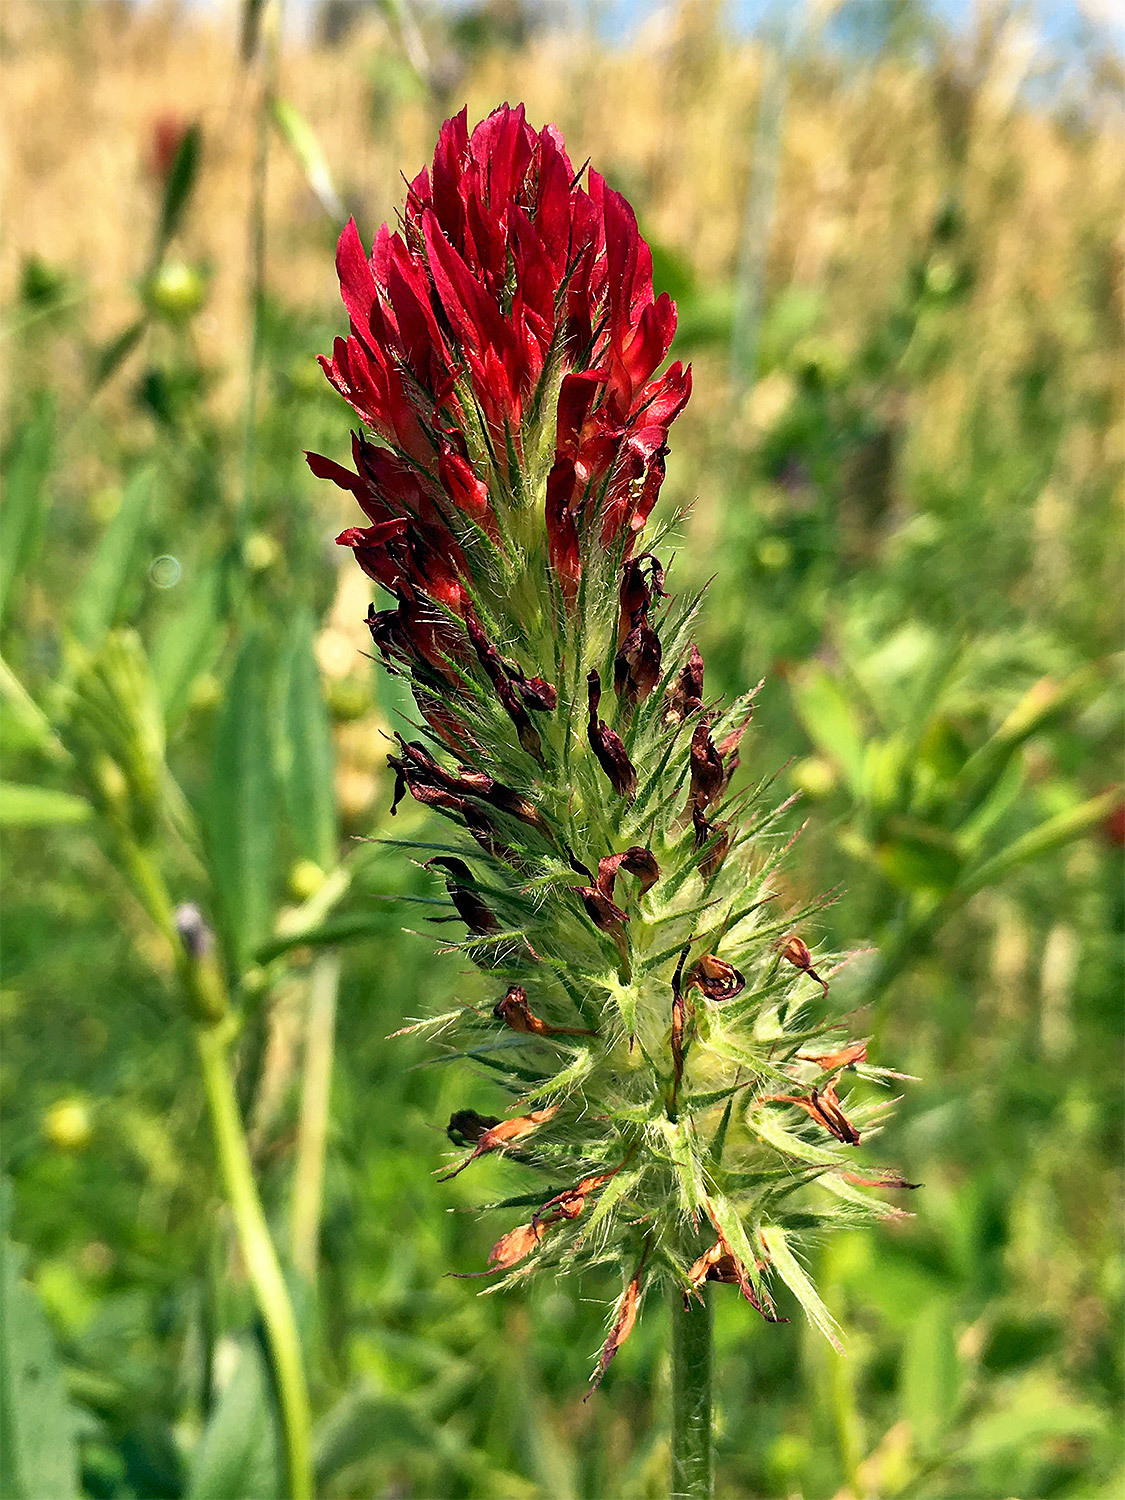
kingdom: Plantae
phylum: Tracheophyta
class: Magnoliopsida
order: Fabales
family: Fabaceae
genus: Trifolium
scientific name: Trifolium incarnatum
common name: Crimson clover
